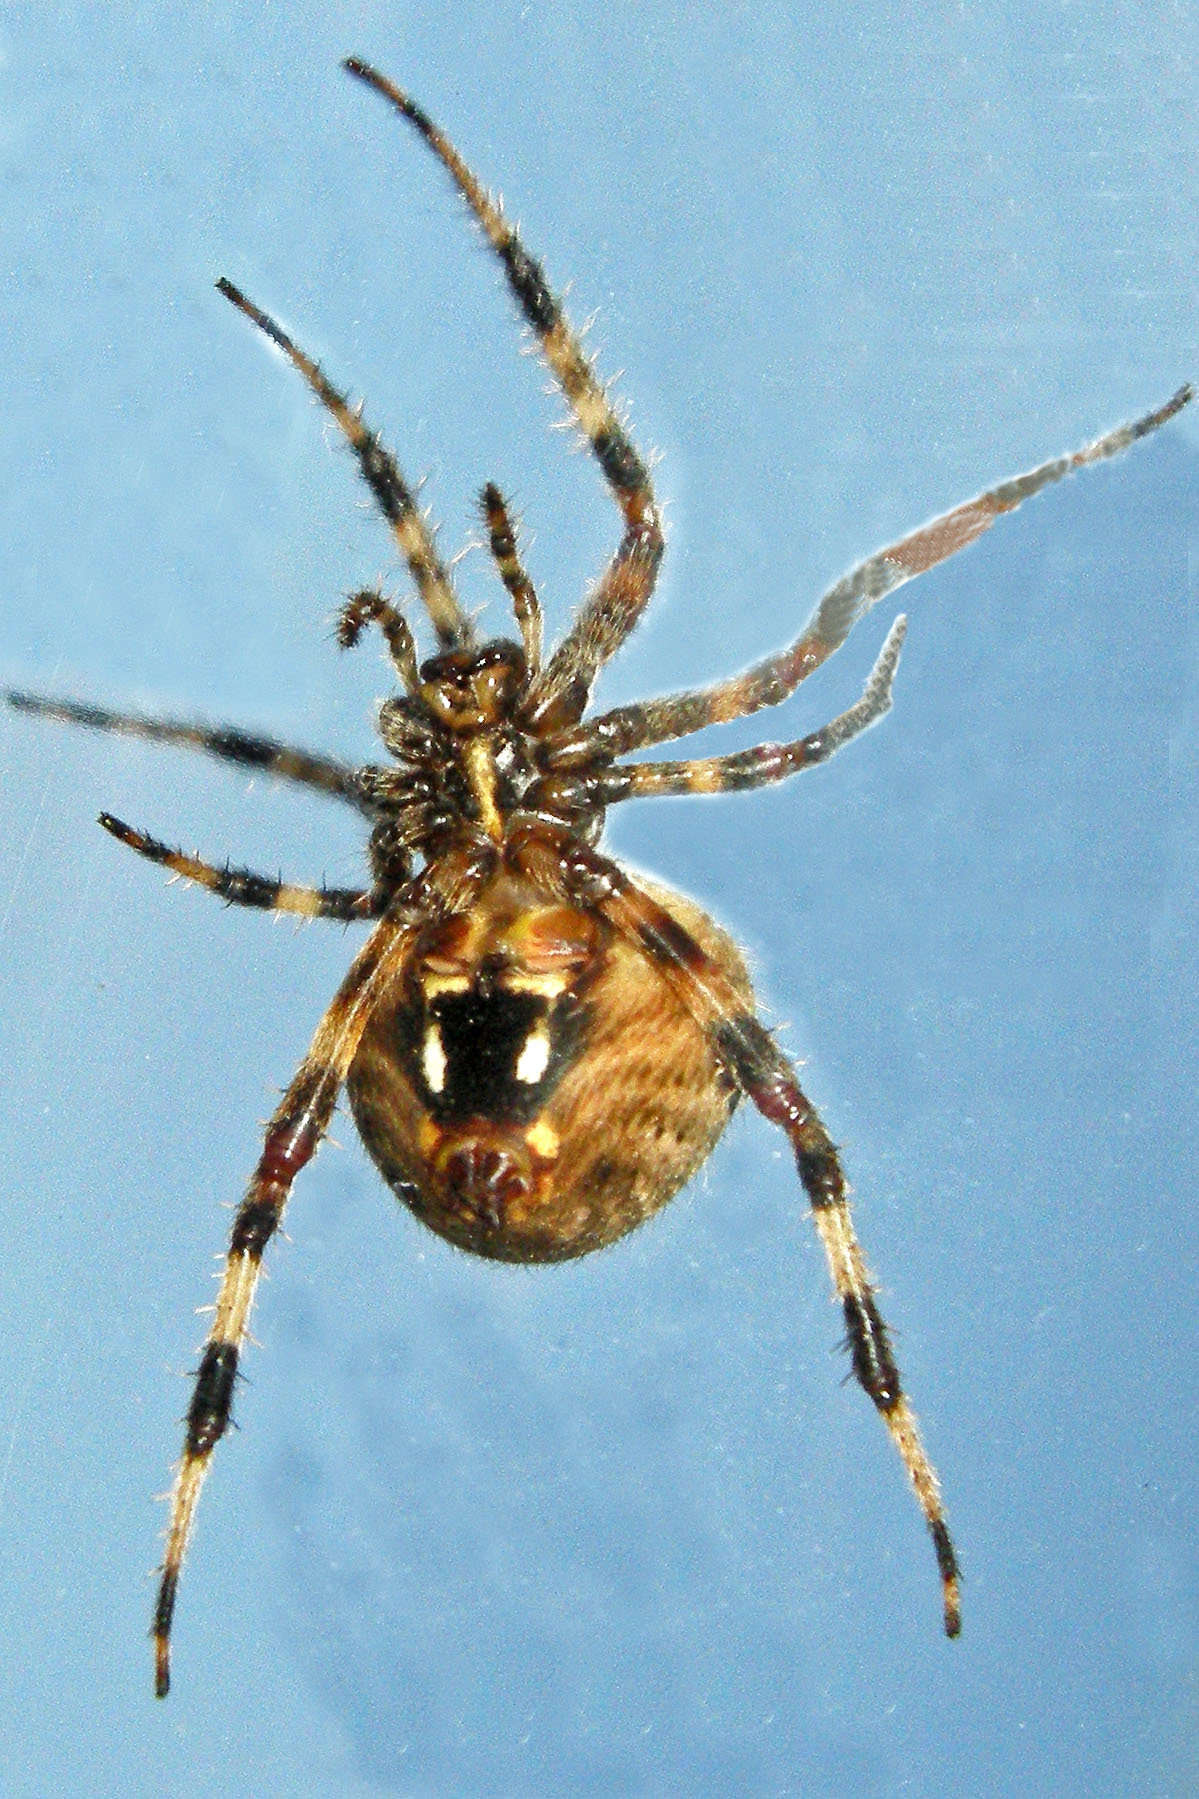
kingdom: Animalia
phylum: Arthropoda
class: Arachnida
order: Araneae
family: Araneidae
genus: Neoscona
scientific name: Neoscona crucifera
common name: Spotted orbweaver
